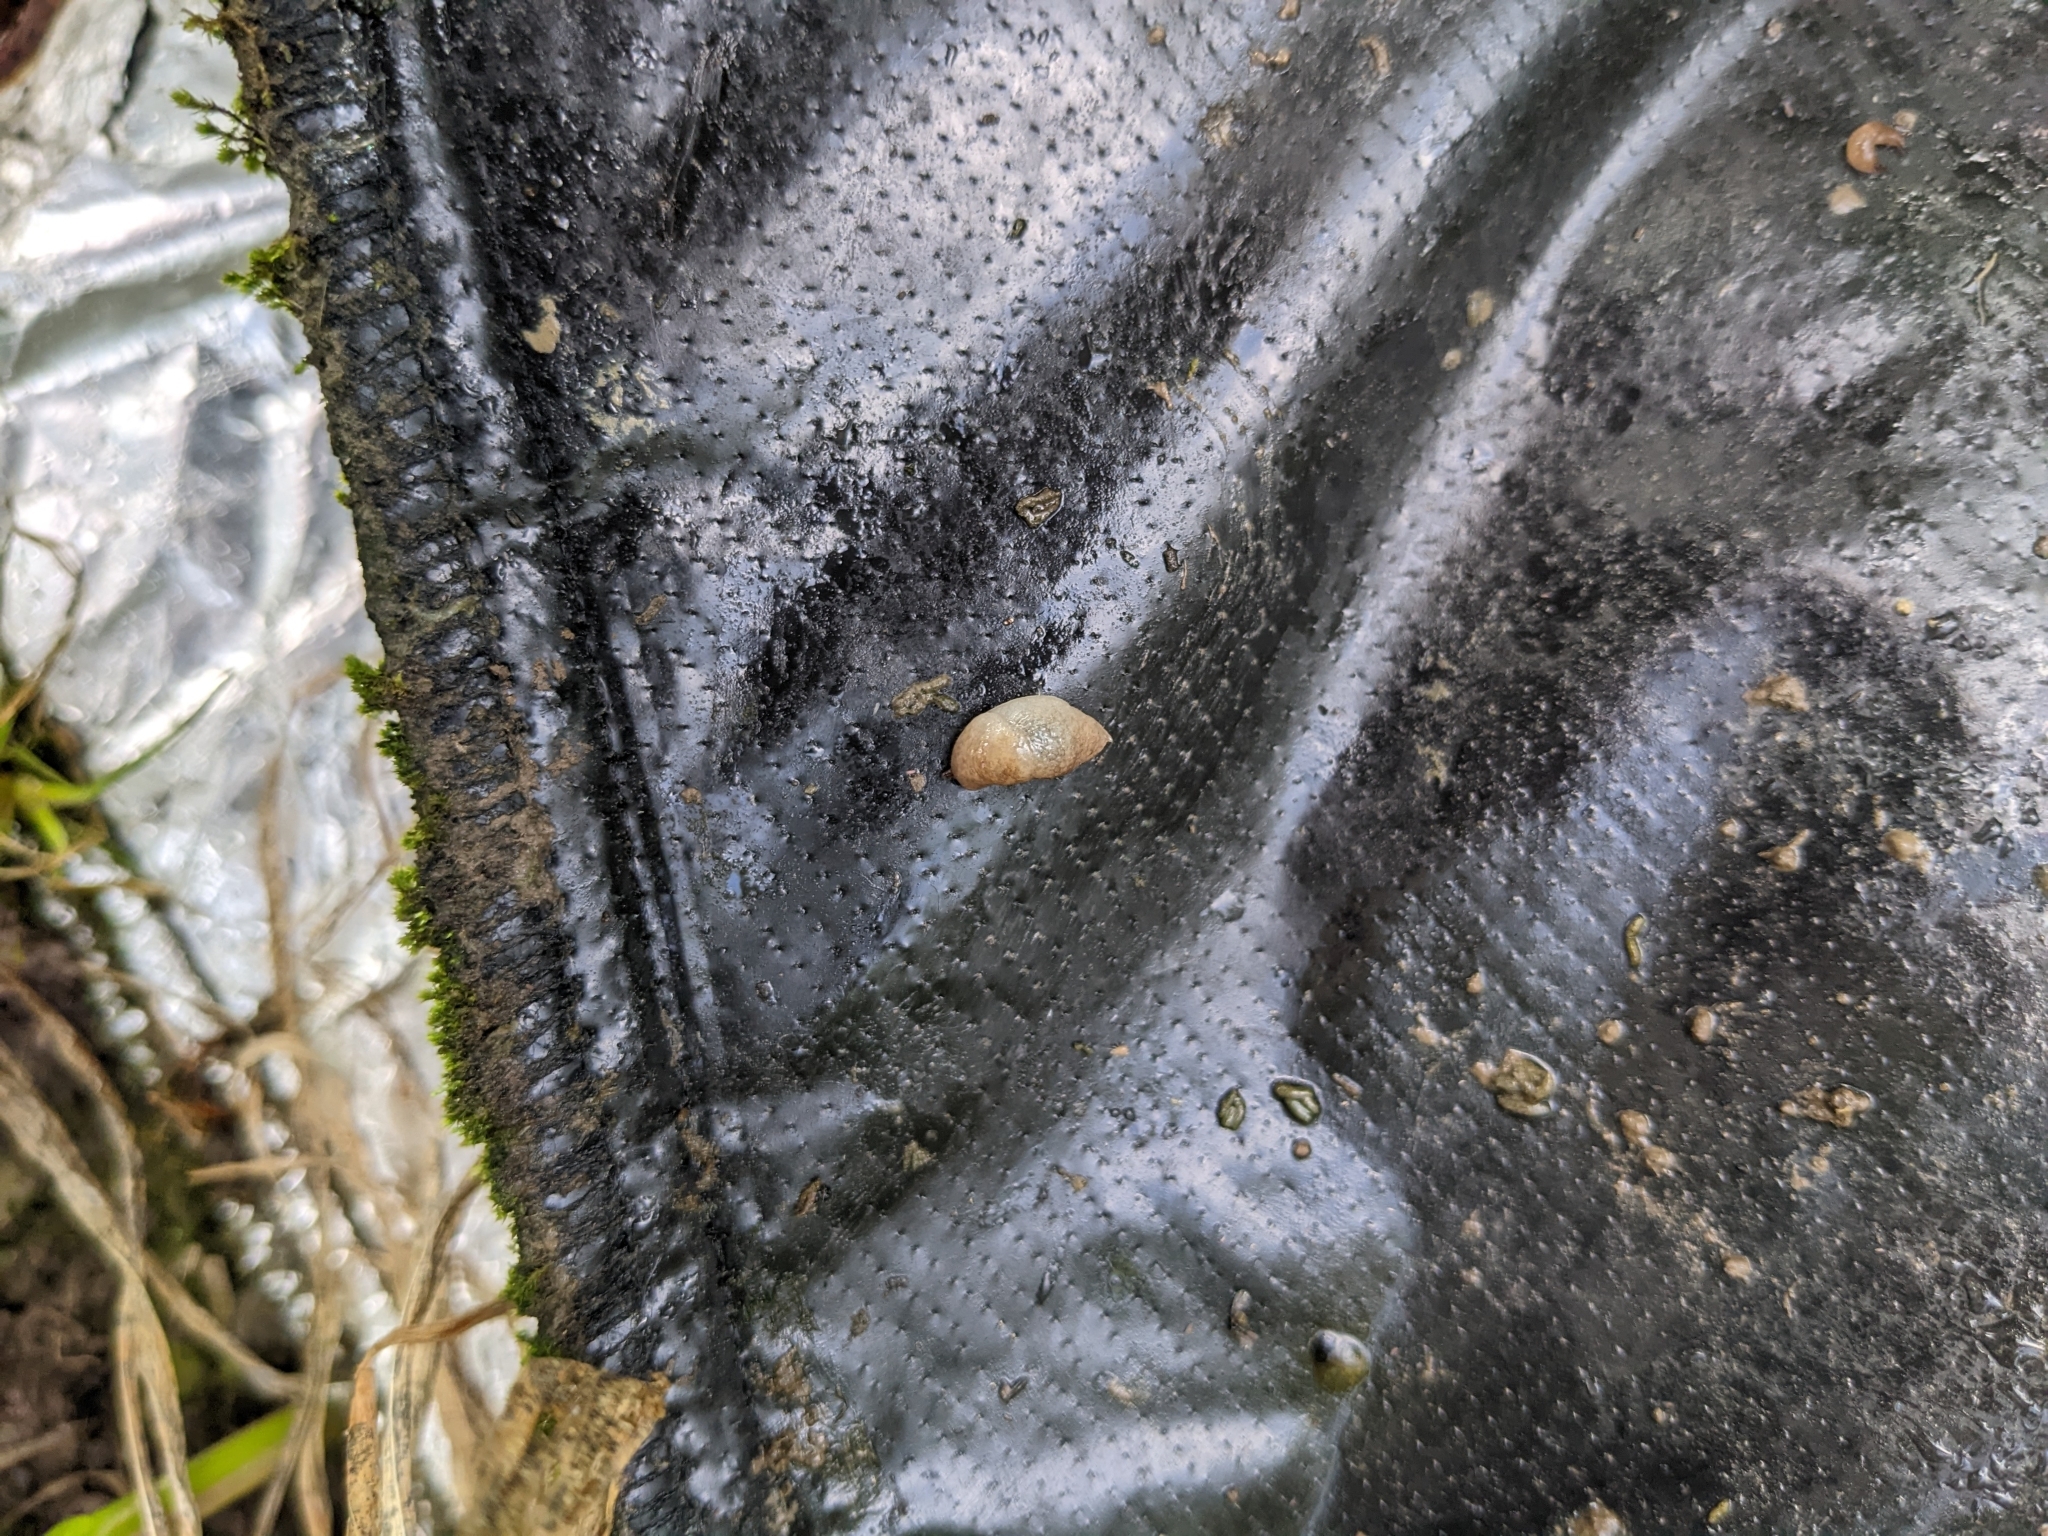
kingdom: Animalia
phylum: Mollusca
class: Gastropoda
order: Stylommatophora
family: Agriolimacidae
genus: Deroceras
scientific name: Deroceras reticulatum
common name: Gray field slug
